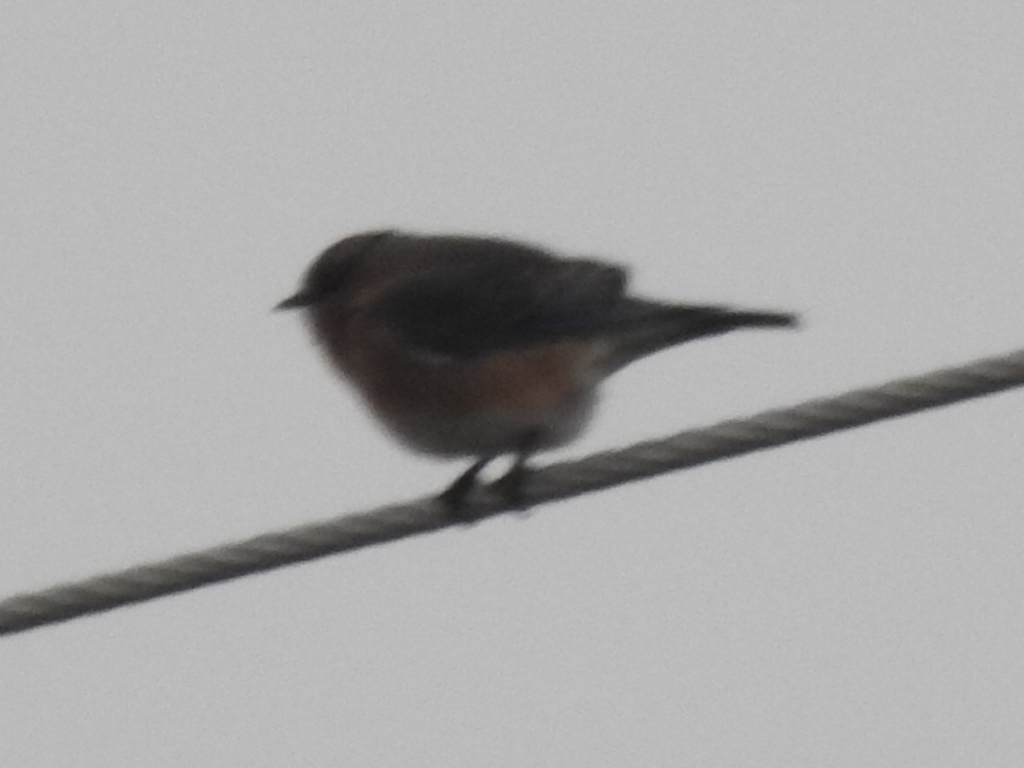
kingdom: Animalia
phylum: Chordata
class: Aves
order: Passeriformes
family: Turdidae
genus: Sialia
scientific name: Sialia sialis
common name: Eastern bluebird
